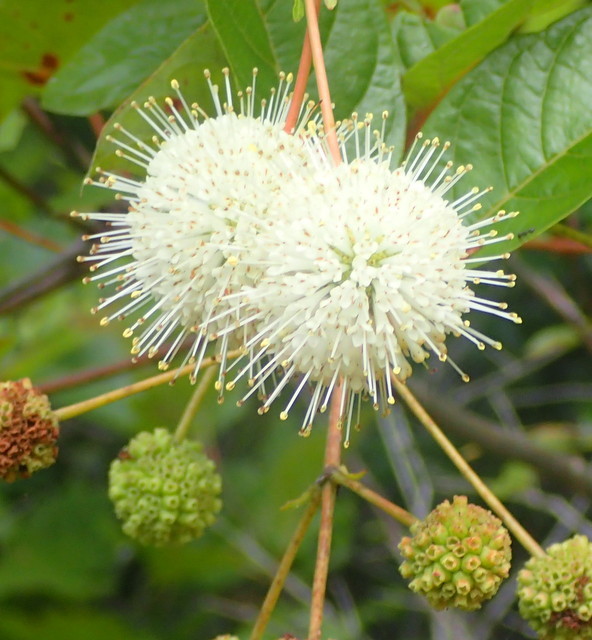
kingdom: Plantae
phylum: Tracheophyta
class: Magnoliopsida
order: Gentianales
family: Rubiaceae
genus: Cephalanthus
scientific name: Cephalanthus occidentalis
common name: Button-willow
